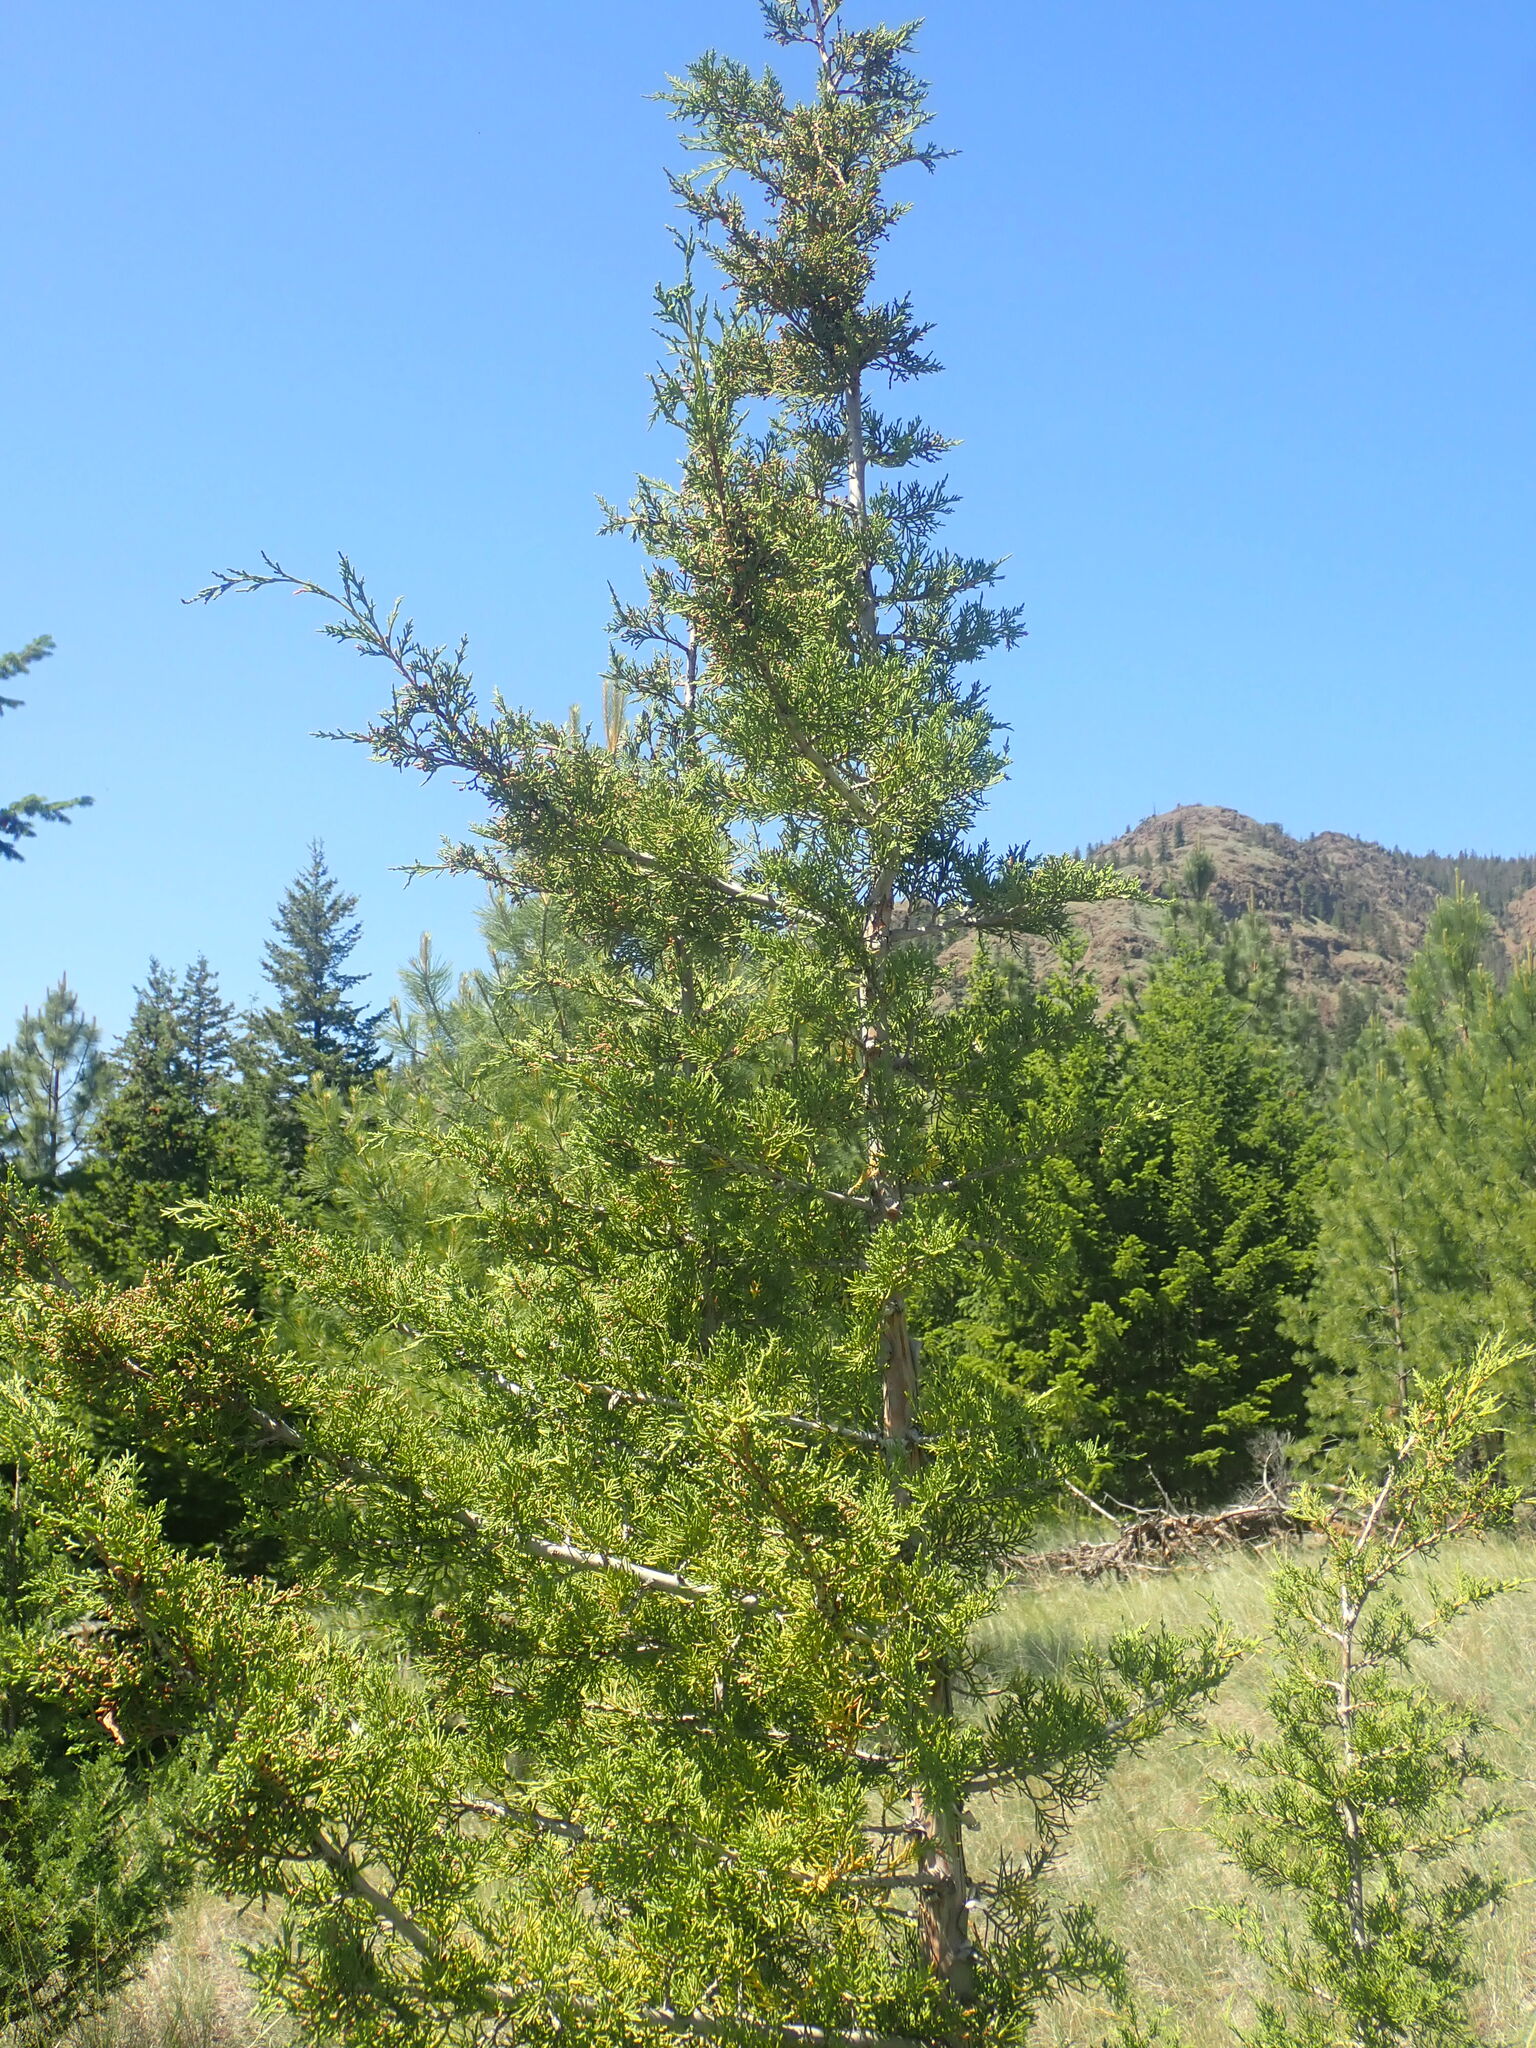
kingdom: Plantae
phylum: Tracheophyta
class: Pinopsida
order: Pinales
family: Cupressaceae
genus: Juniperus
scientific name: Juniperus scopulorum
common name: Rocky mountain juniper
